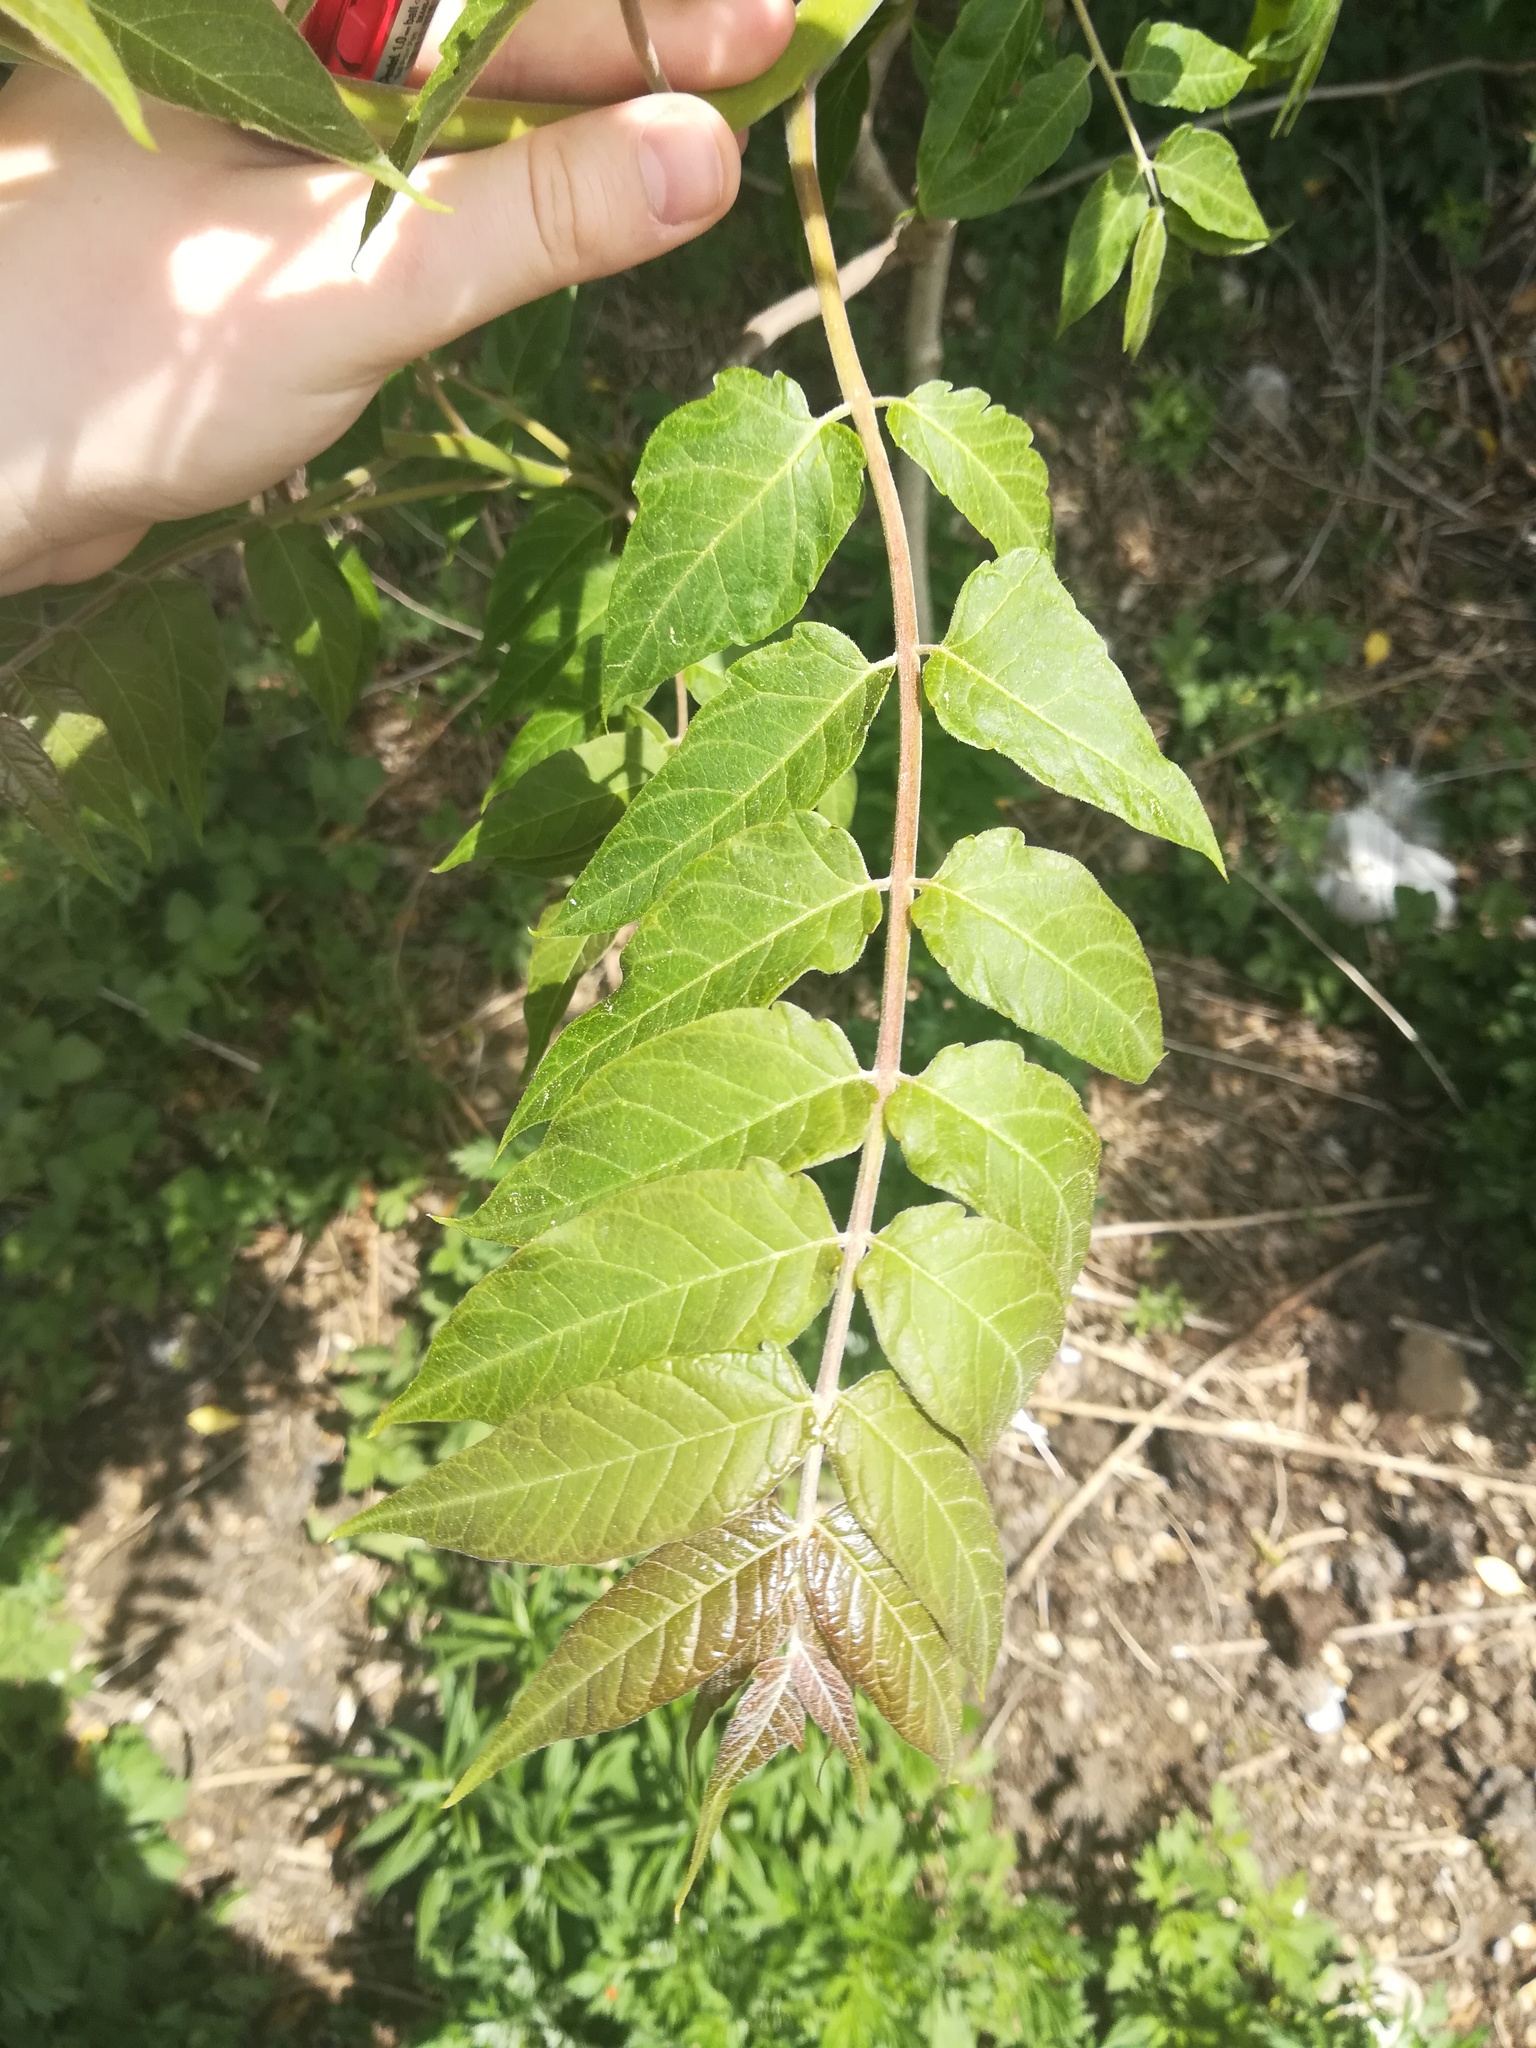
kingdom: Plantae
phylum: Tracheophyta
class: Magnoliopsida
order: Sapindales
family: Simaroubaceae
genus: Ailanthus
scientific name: Ailanthus altissima
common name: Tree-of-heaven
